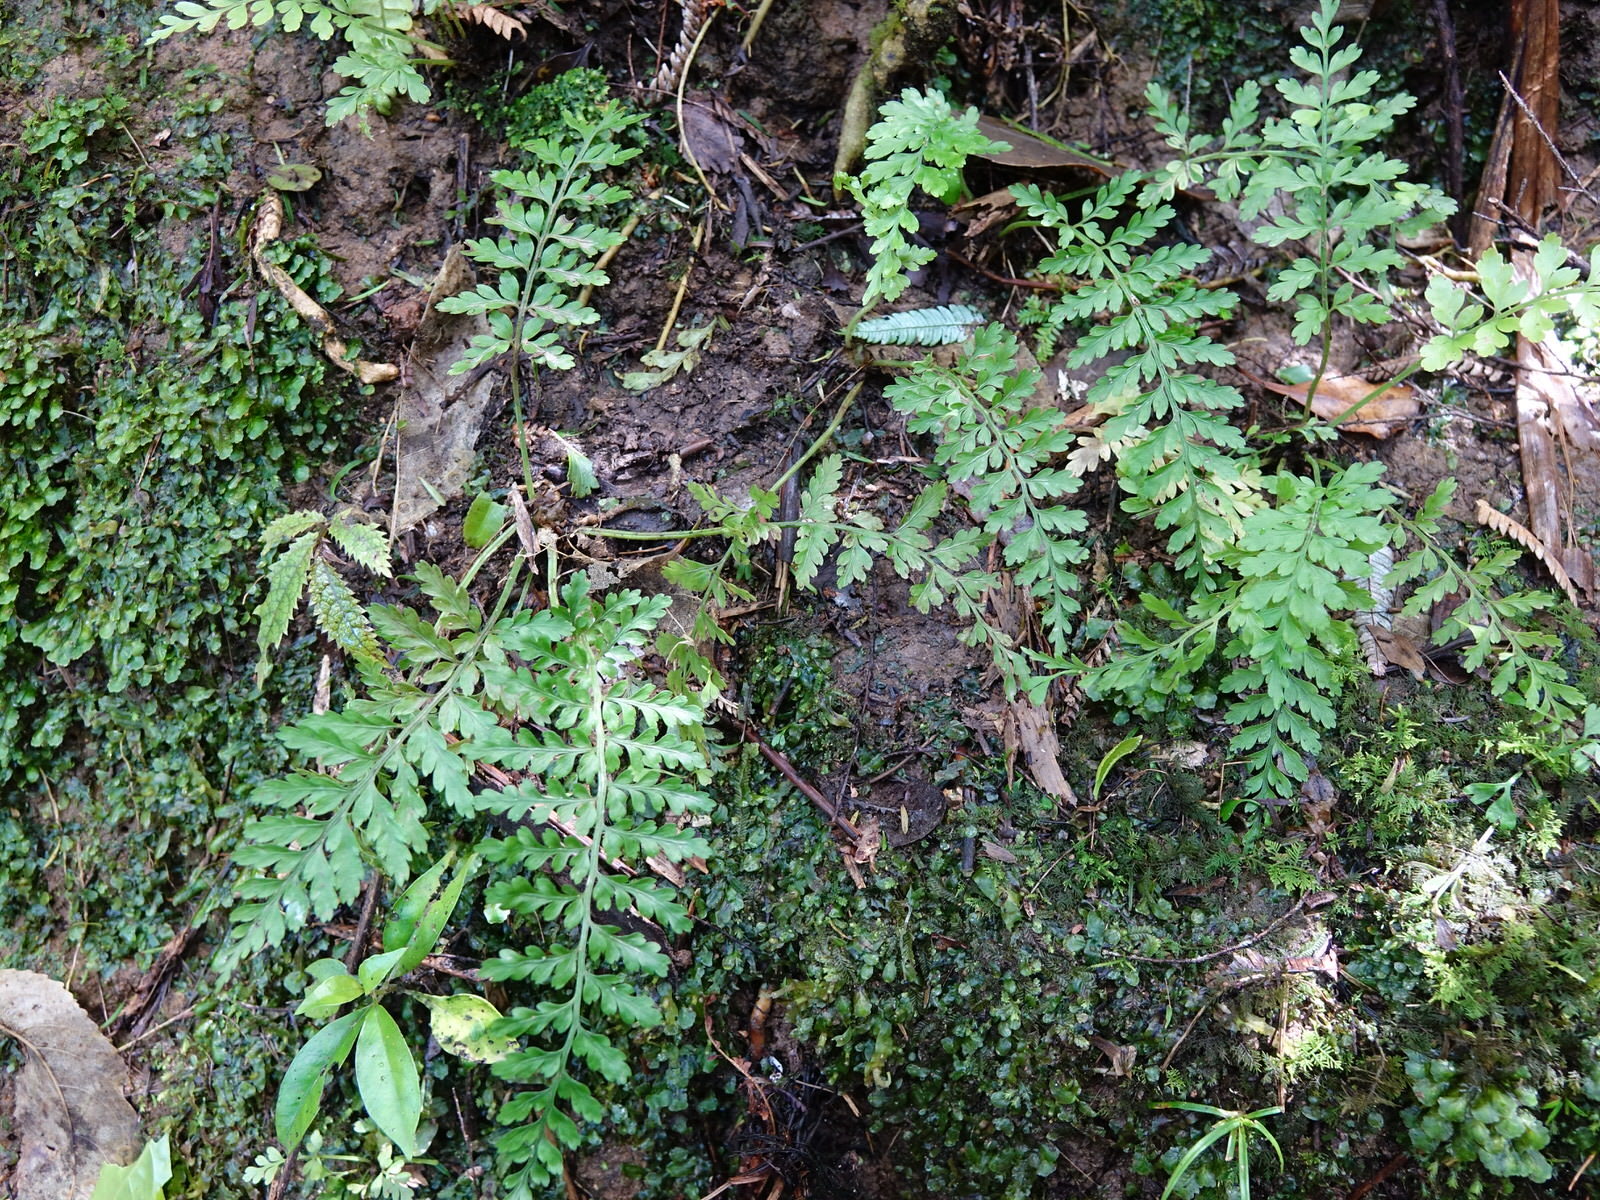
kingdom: Plantae
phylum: Tracheophyta
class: Polypodiopsida
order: Polypodiales
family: Aspleniaceae
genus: Asplenium
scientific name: Asplenium bulbiferum
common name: Mother fern
